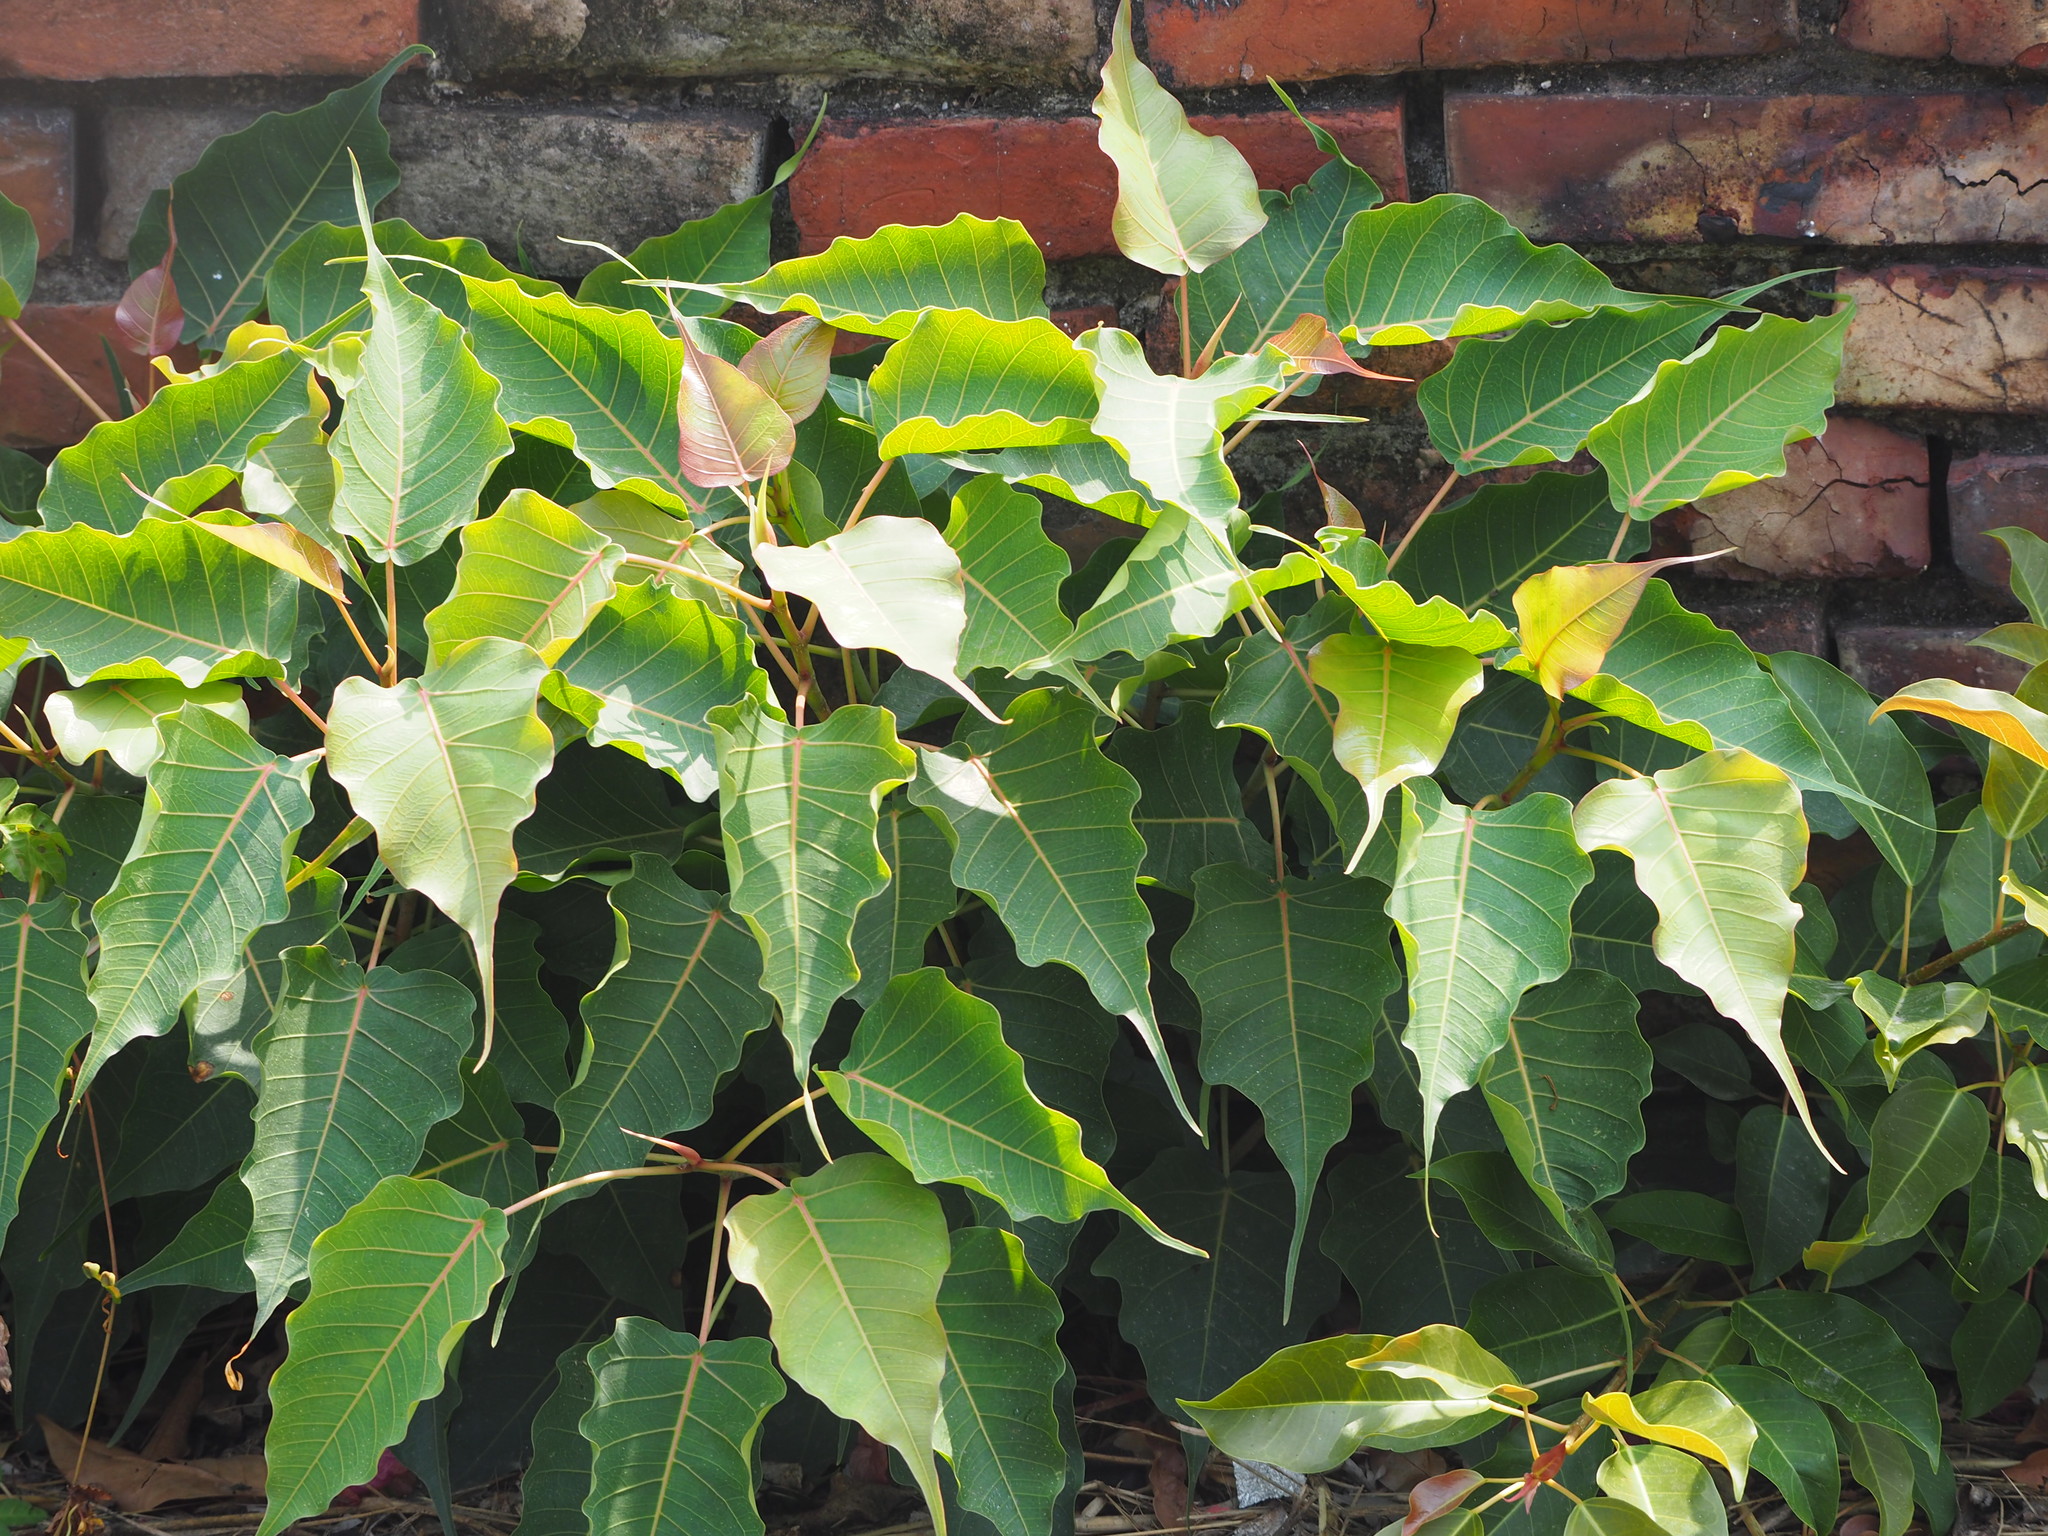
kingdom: Plantae
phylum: Tracheophyta
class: Magnoliopsida
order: Rosales
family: Moraceae
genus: Ficus
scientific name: Ficus religiosa
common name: Bodhi tree
